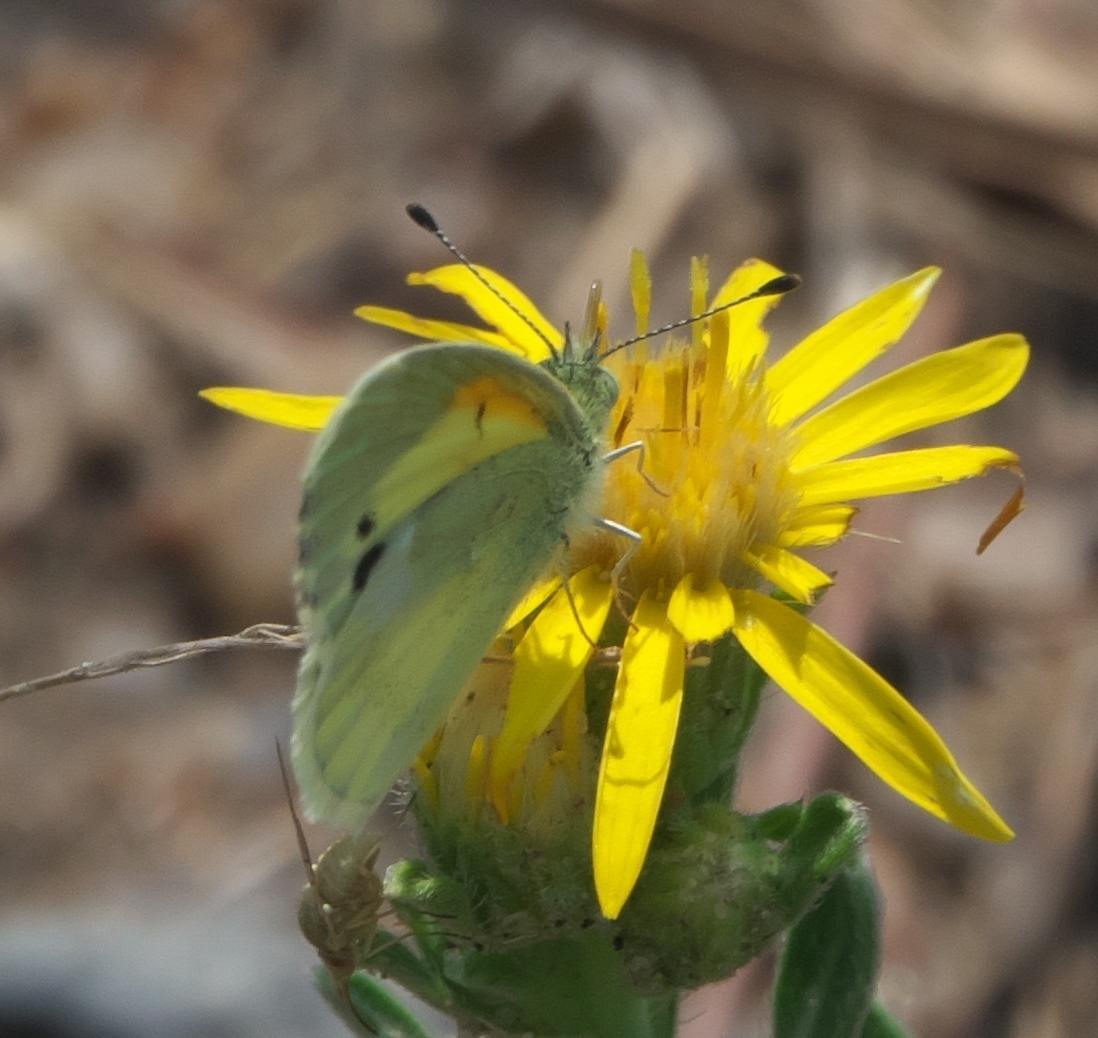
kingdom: Animalia
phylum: Arthropoda
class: Insecta
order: Lepidoptera
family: Pieridae
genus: Nathalis
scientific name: Nathalis iole
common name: Dainty sulphur
